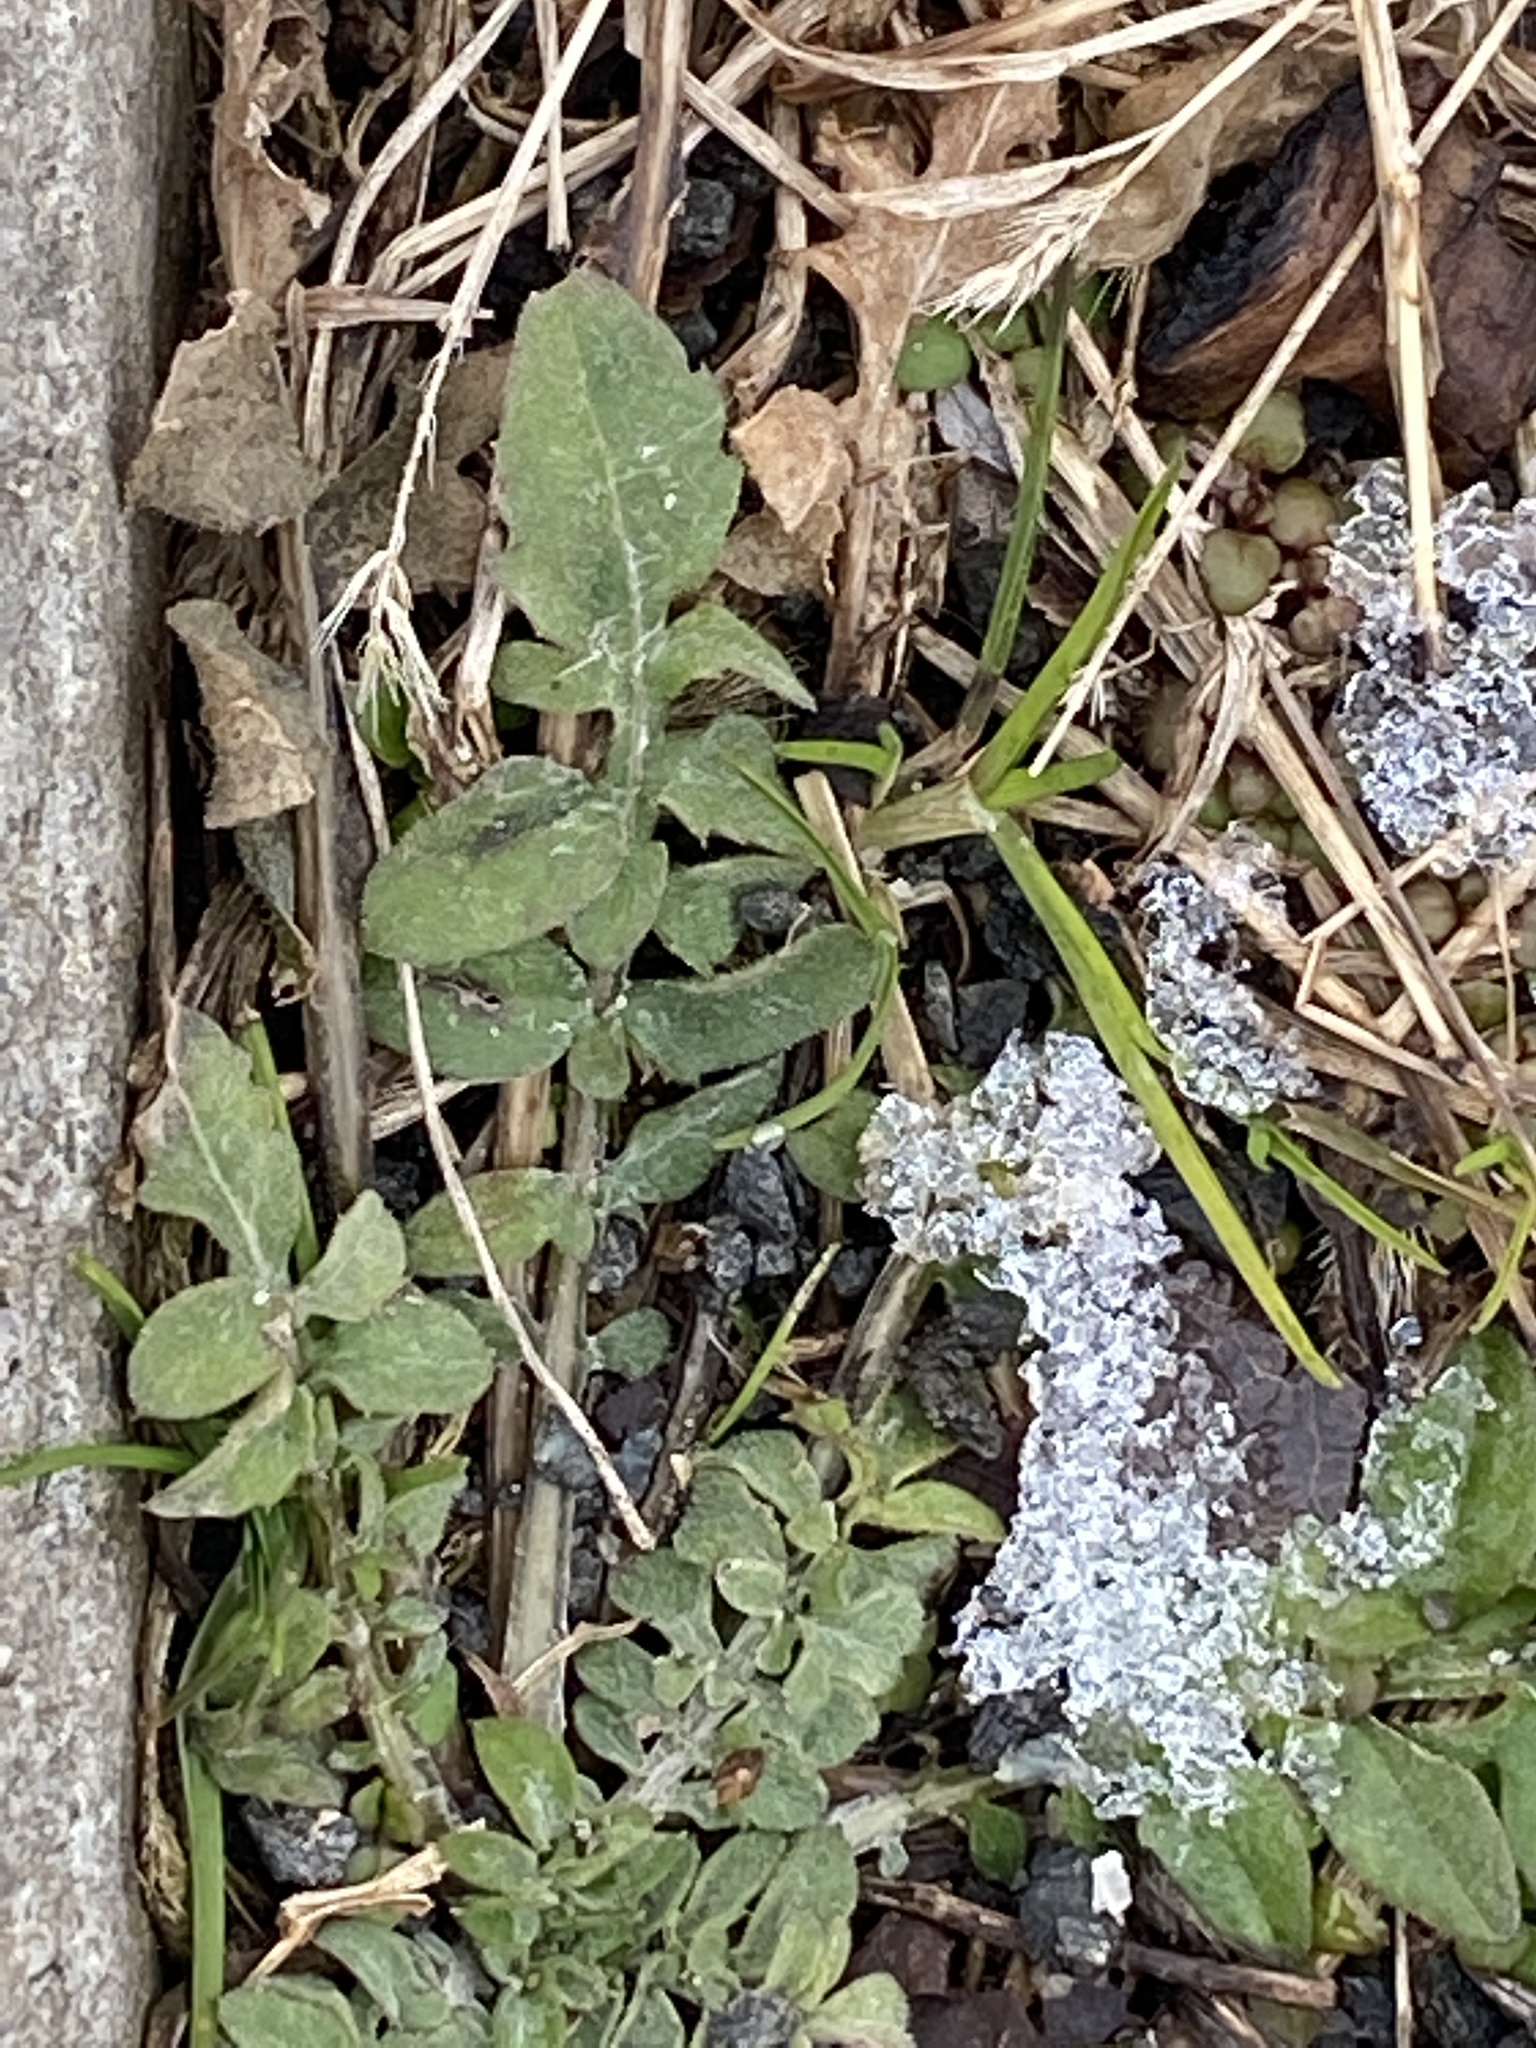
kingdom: Plantae
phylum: Tracheophyta
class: Magnoliopsida
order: Asterales
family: Asteraceae
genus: Centaurea
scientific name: Centaurea stoebe
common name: Spotted knapweed
